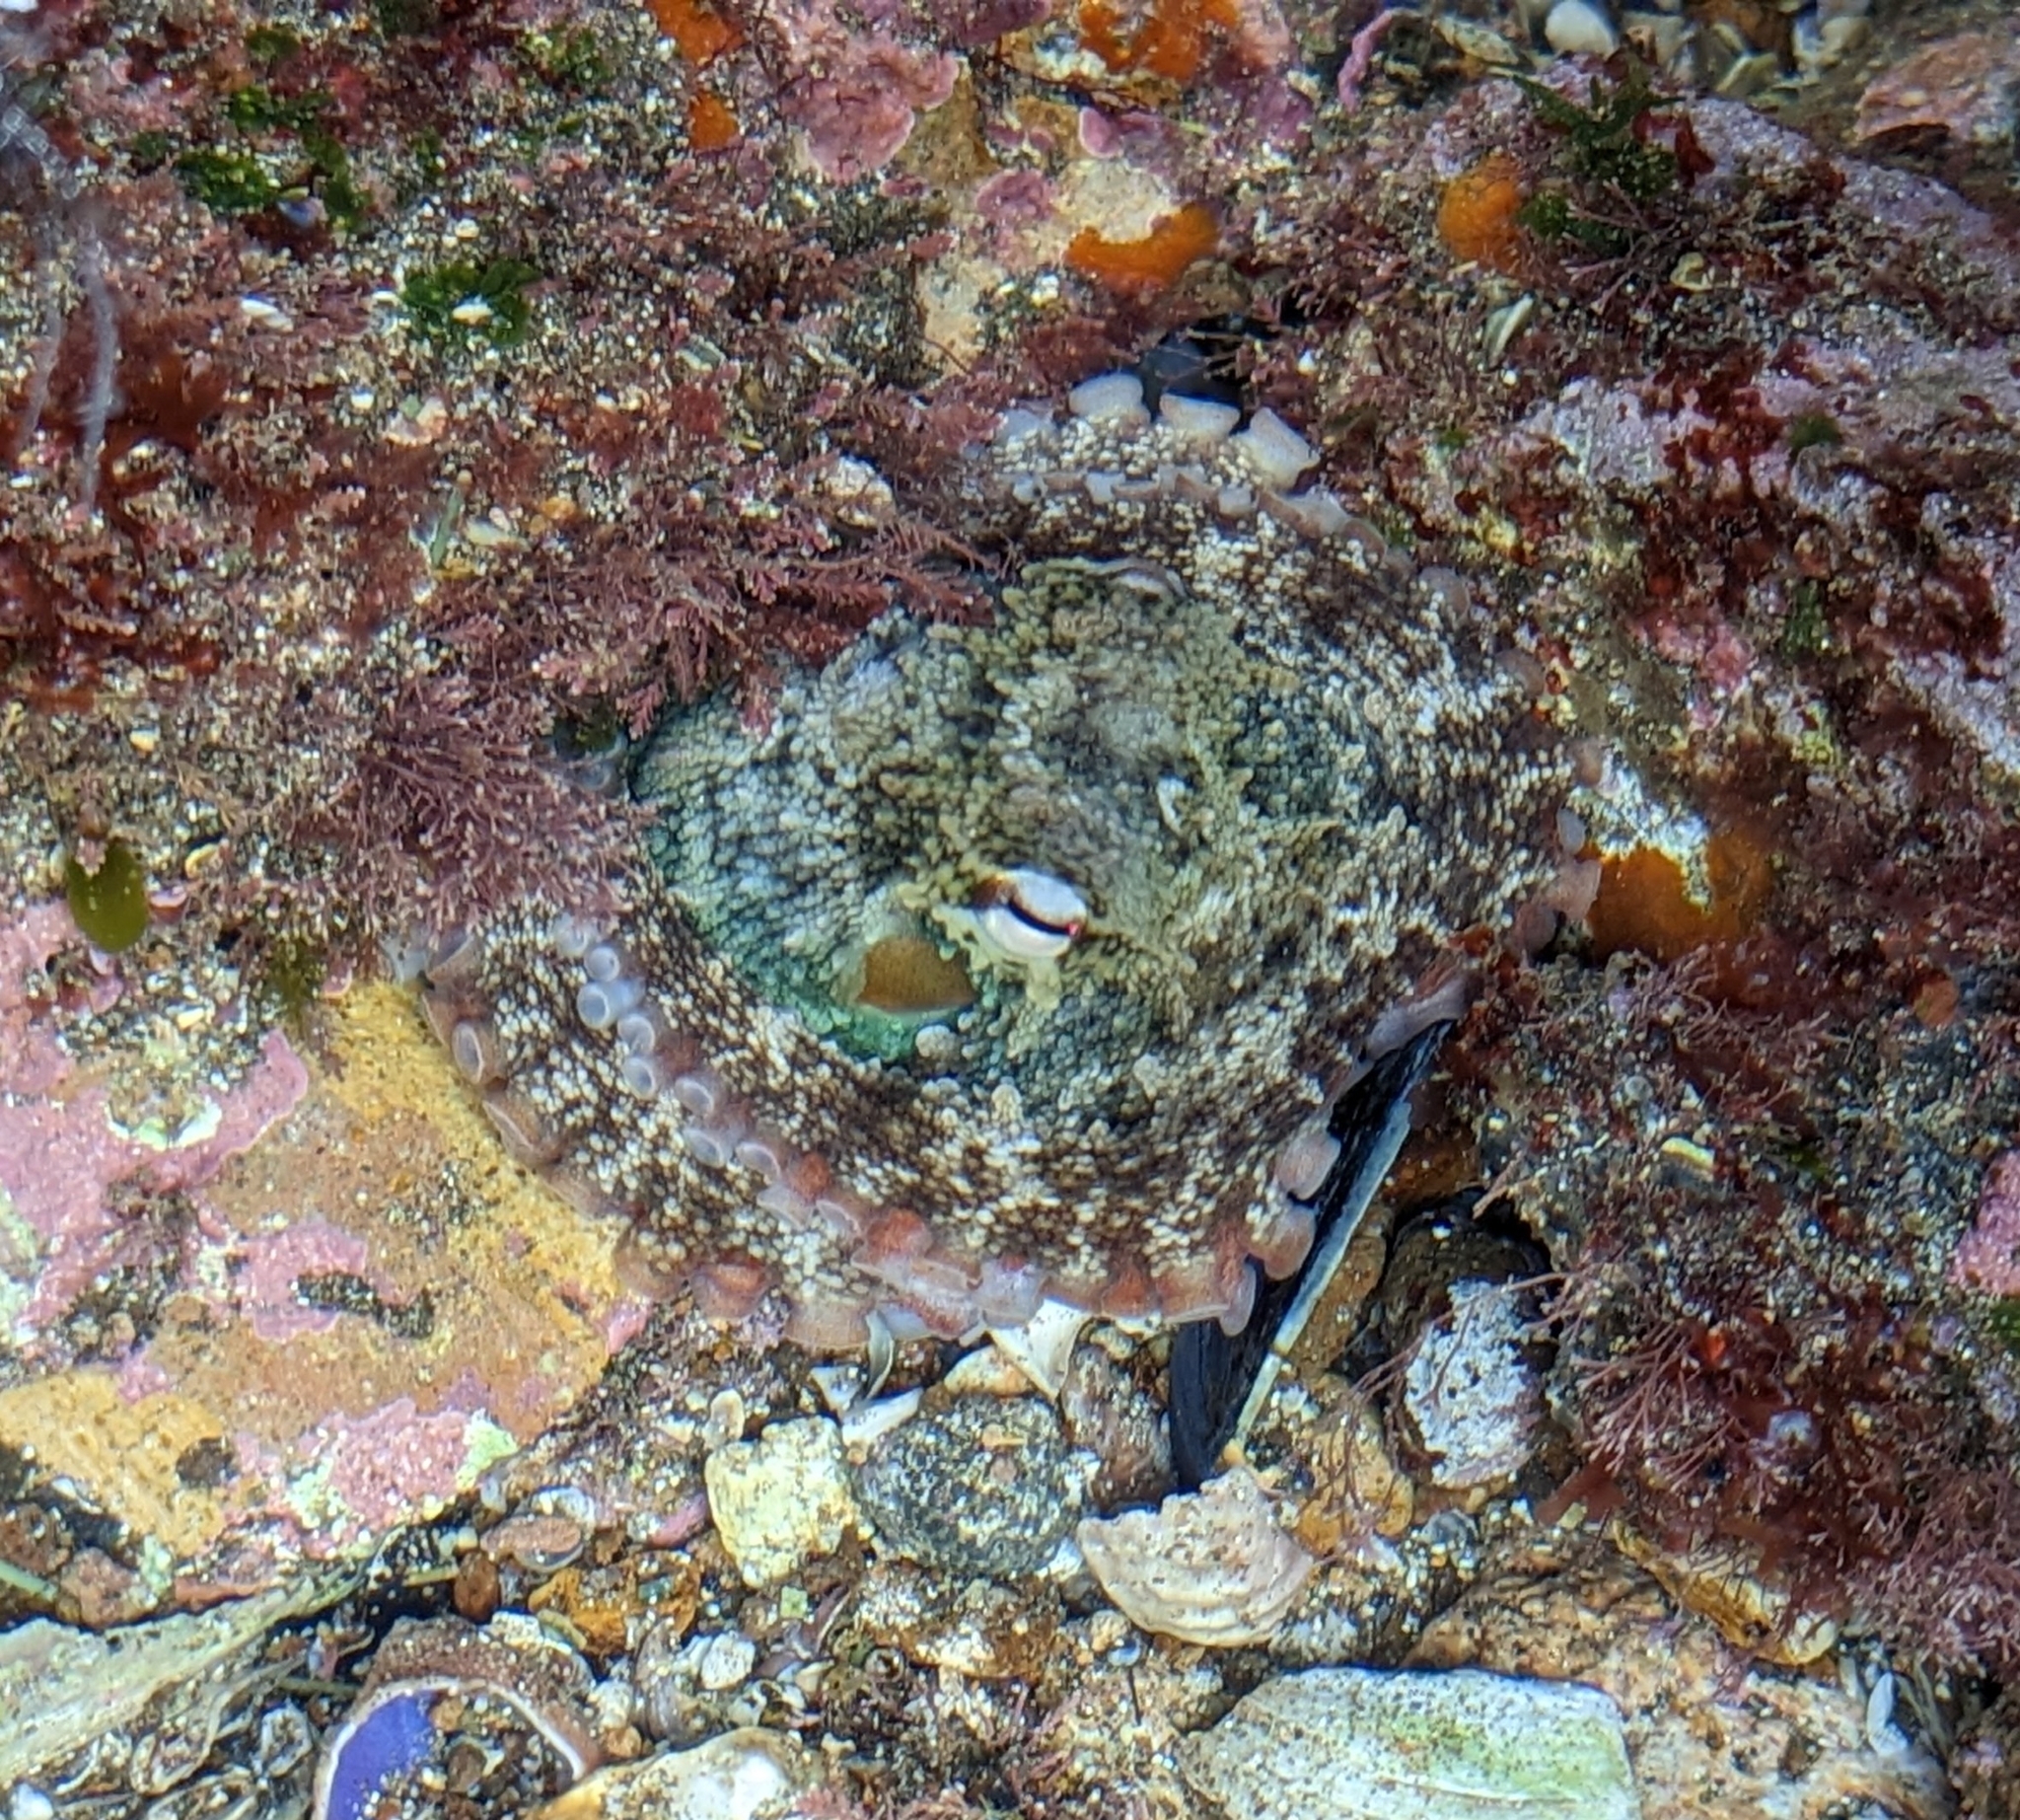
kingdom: Animalia
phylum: Mollusca
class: Cephalopoda
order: Octopoda
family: Octopodidae
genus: Octopus
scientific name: Octopus tetricus
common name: Sydney octopus
